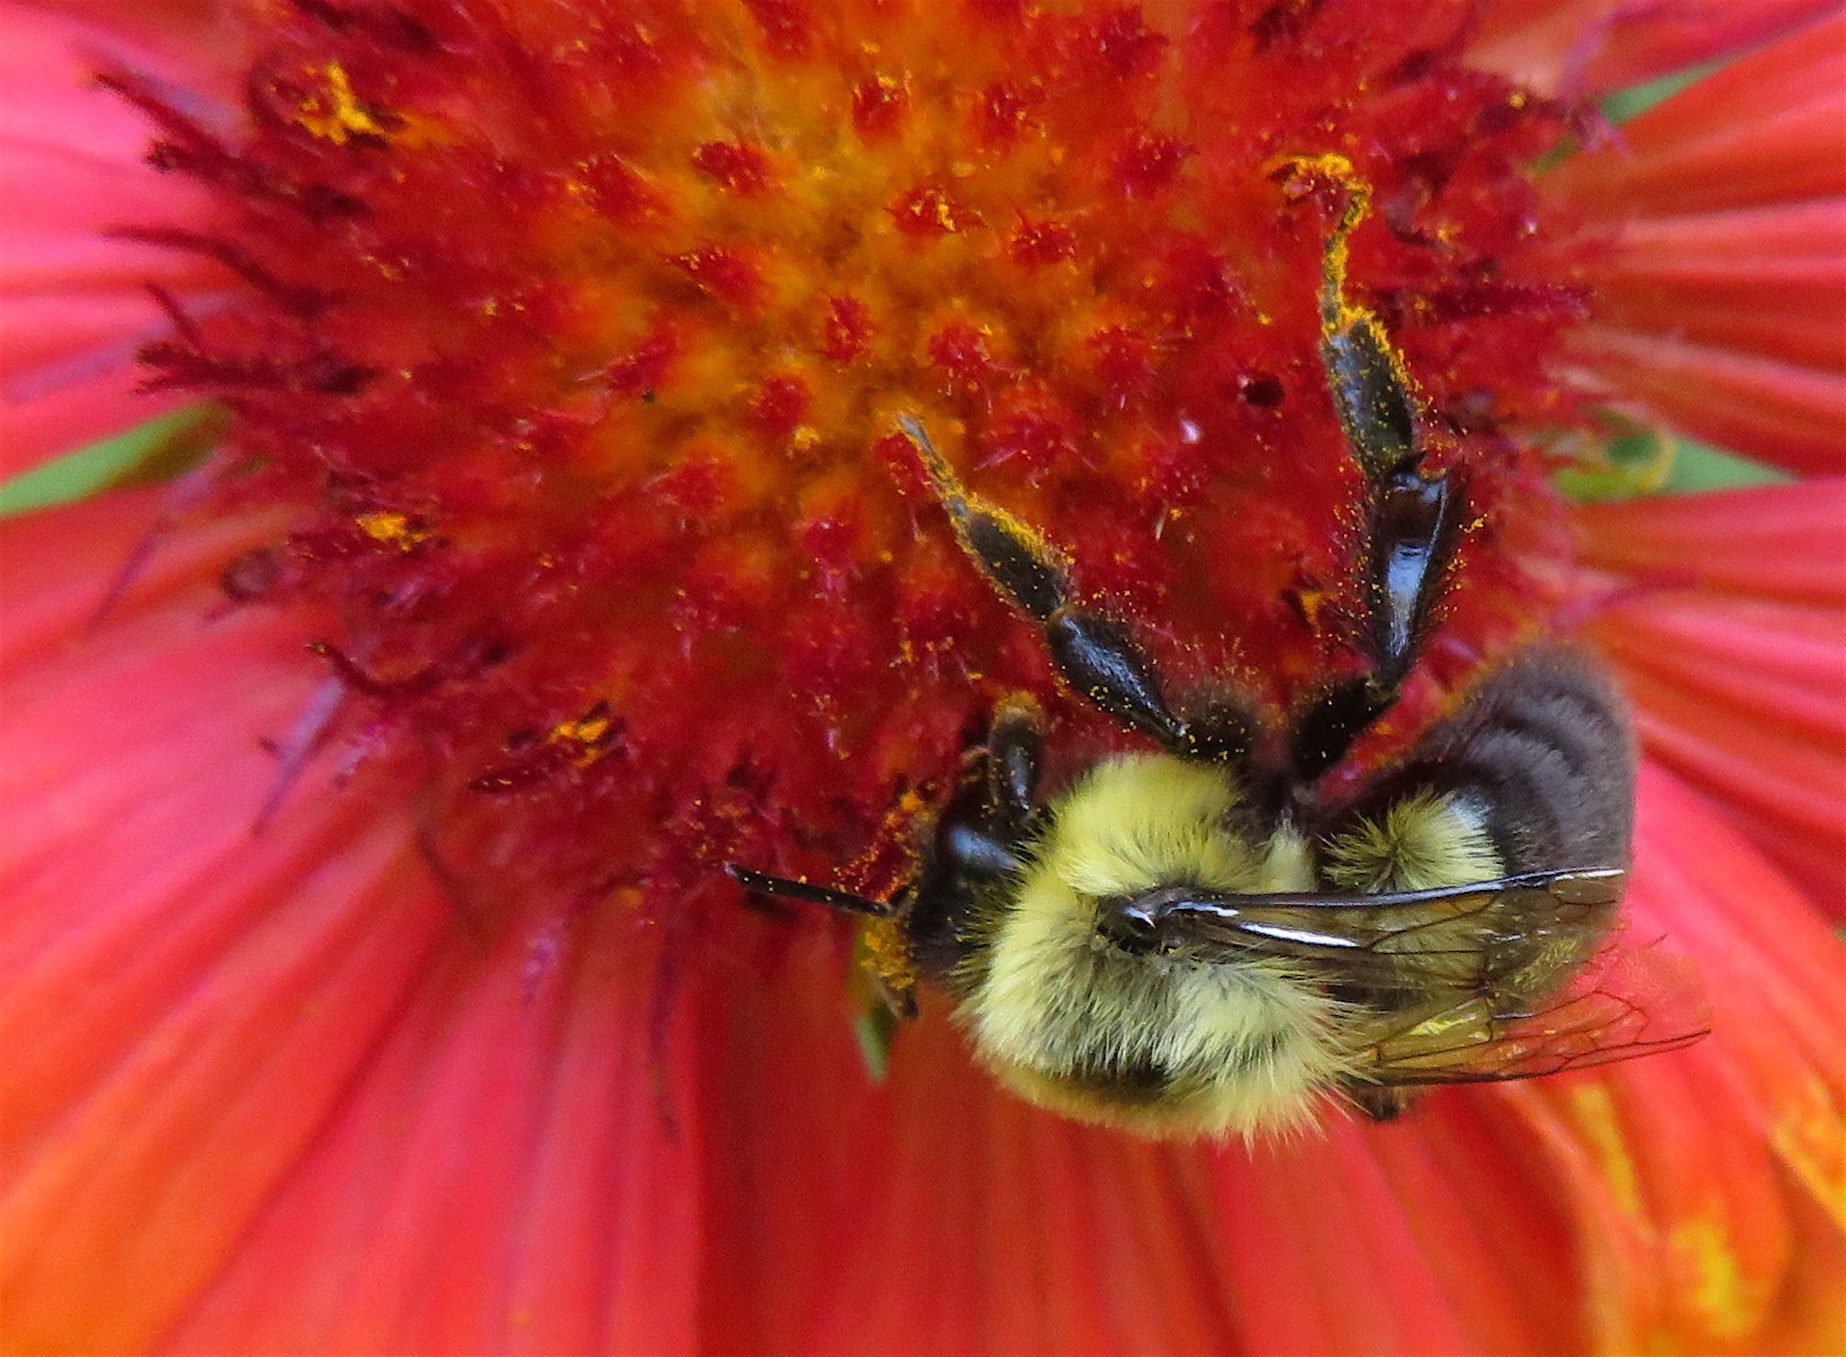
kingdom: Animalia
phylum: Arthropoda
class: Insecta
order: Hymenoptera
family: Apidae
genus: Bombus
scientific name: Bombus impatiens
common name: Common eastern bumble bee
